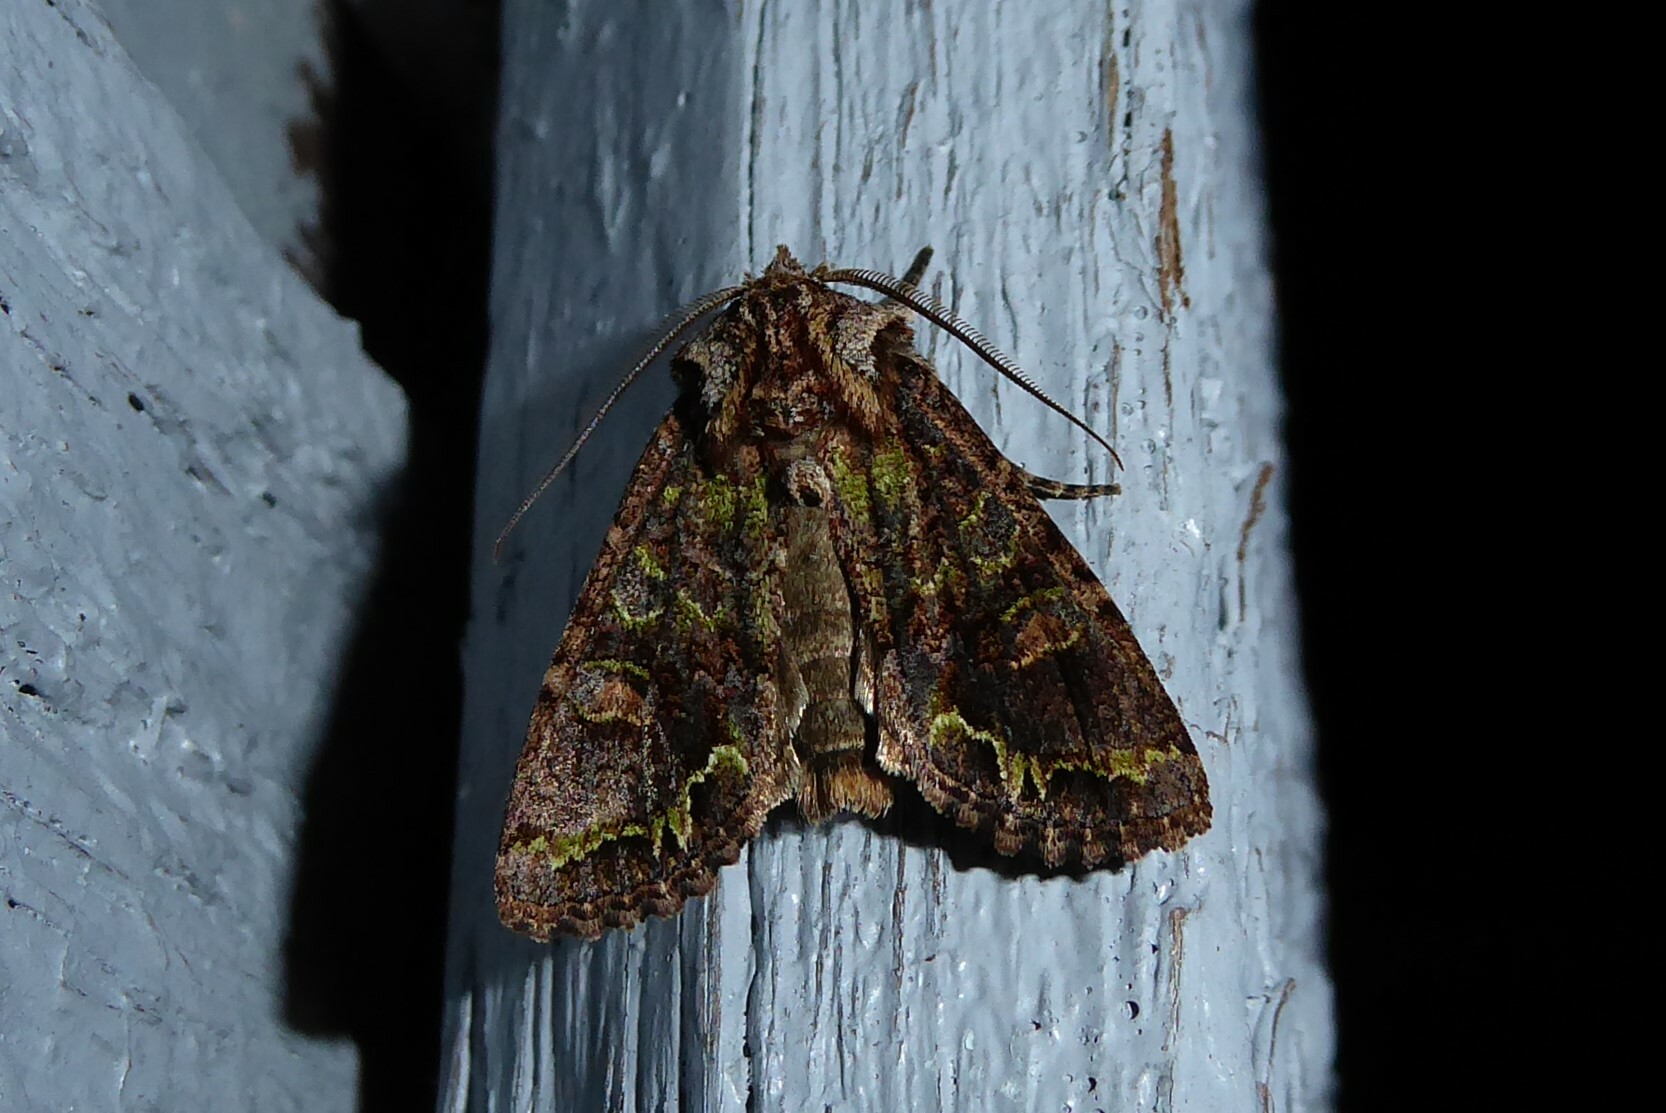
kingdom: Animalia
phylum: Arthropoda
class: Insecta
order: Lepidoptera
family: Noctuidae
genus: Ichneutica
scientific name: Ichneutica insignis
